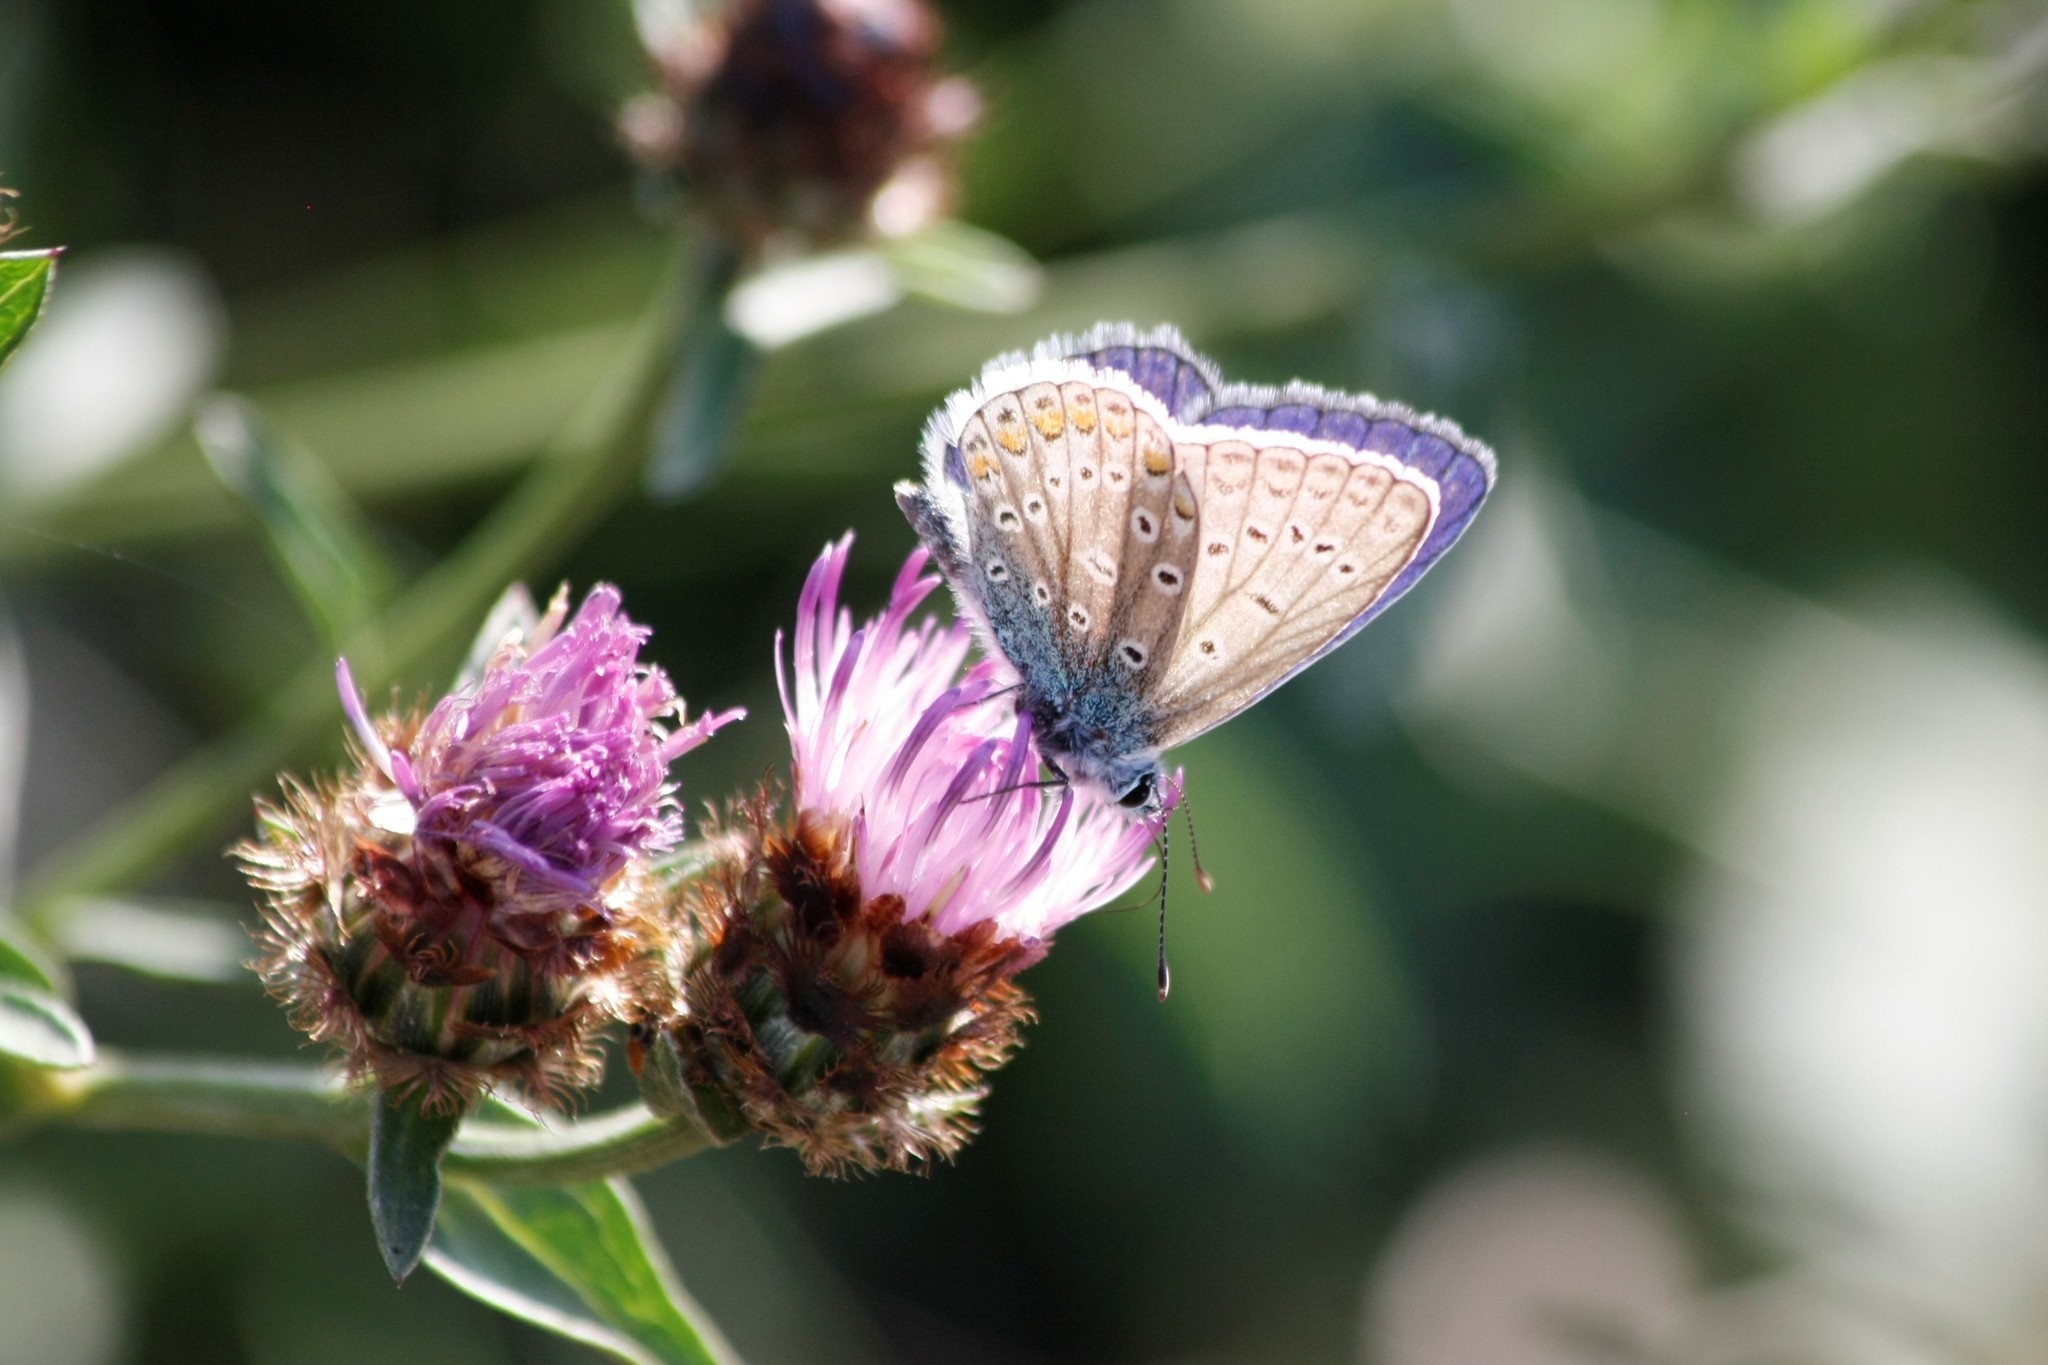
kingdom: Animalia
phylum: Arthropoda
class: Insecta
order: Lepidoptera
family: Lycaenidae
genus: Polyommatus
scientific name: Polyommatus icarus
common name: Common blue
